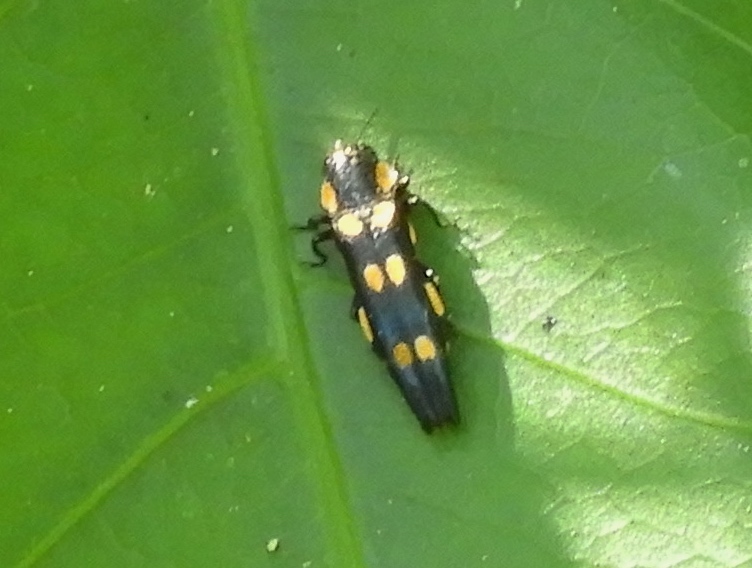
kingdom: Animalia
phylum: Arthropoda
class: Insecta
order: Coleoptera
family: Buprestidae
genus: Agrilus
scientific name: Agrilus xanthonotus
